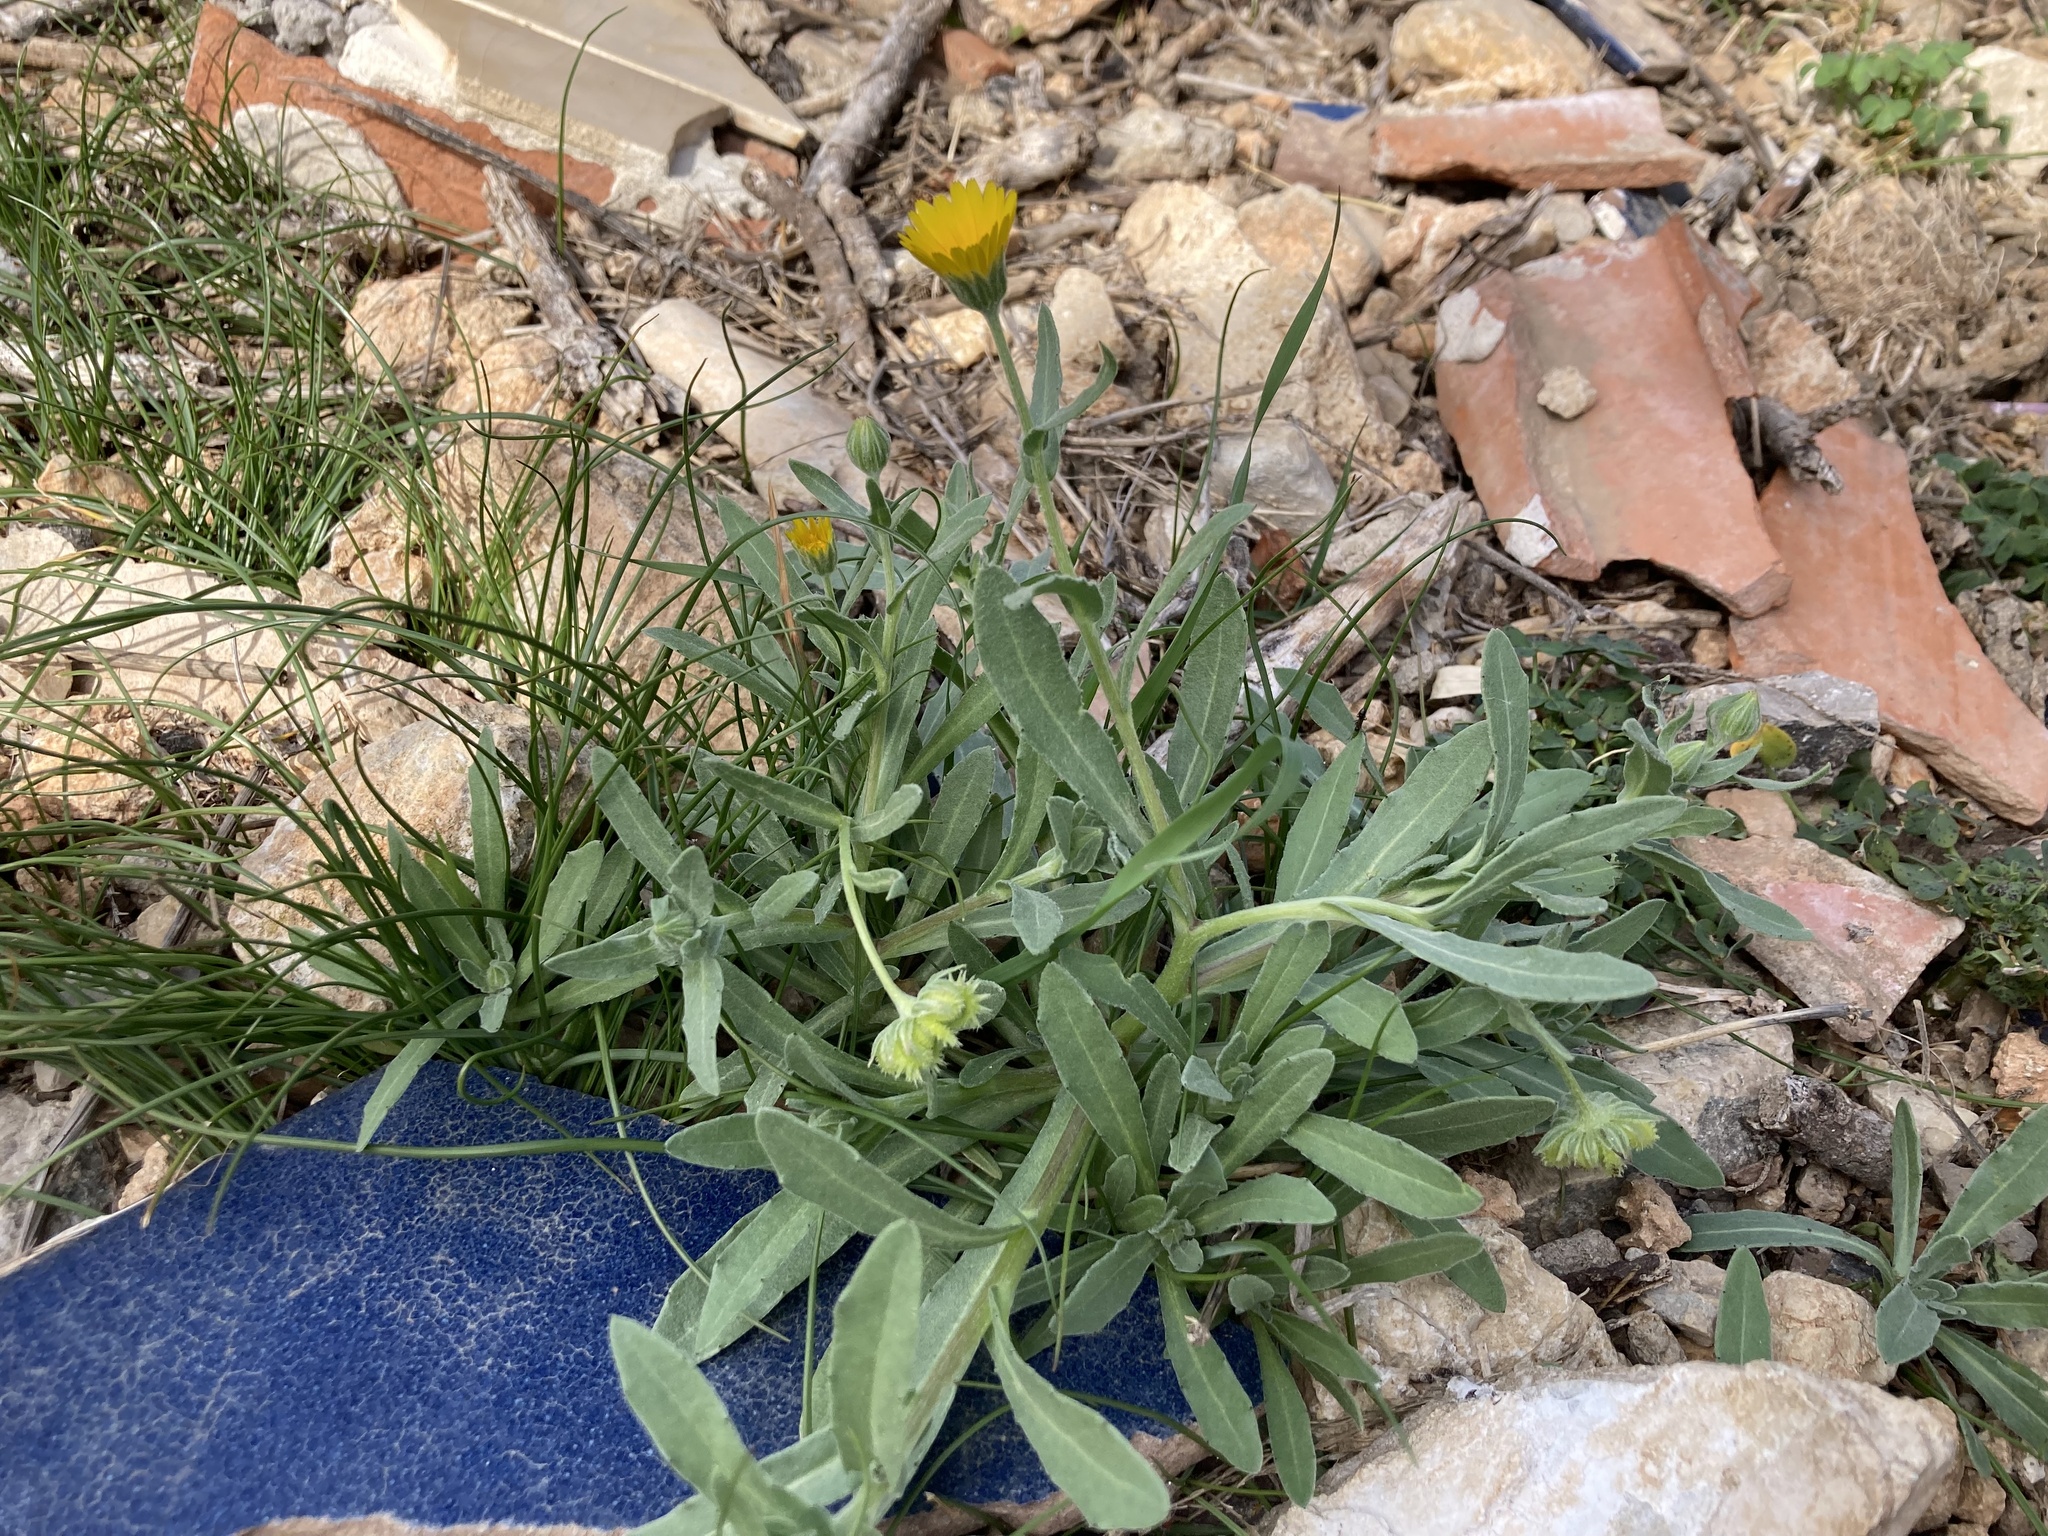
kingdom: Plantae
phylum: Tracheophyta
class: Magnoliopsida
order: Asterales
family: Asteraceae
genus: Calendula
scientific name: Calendula arvensis
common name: Field marigold
